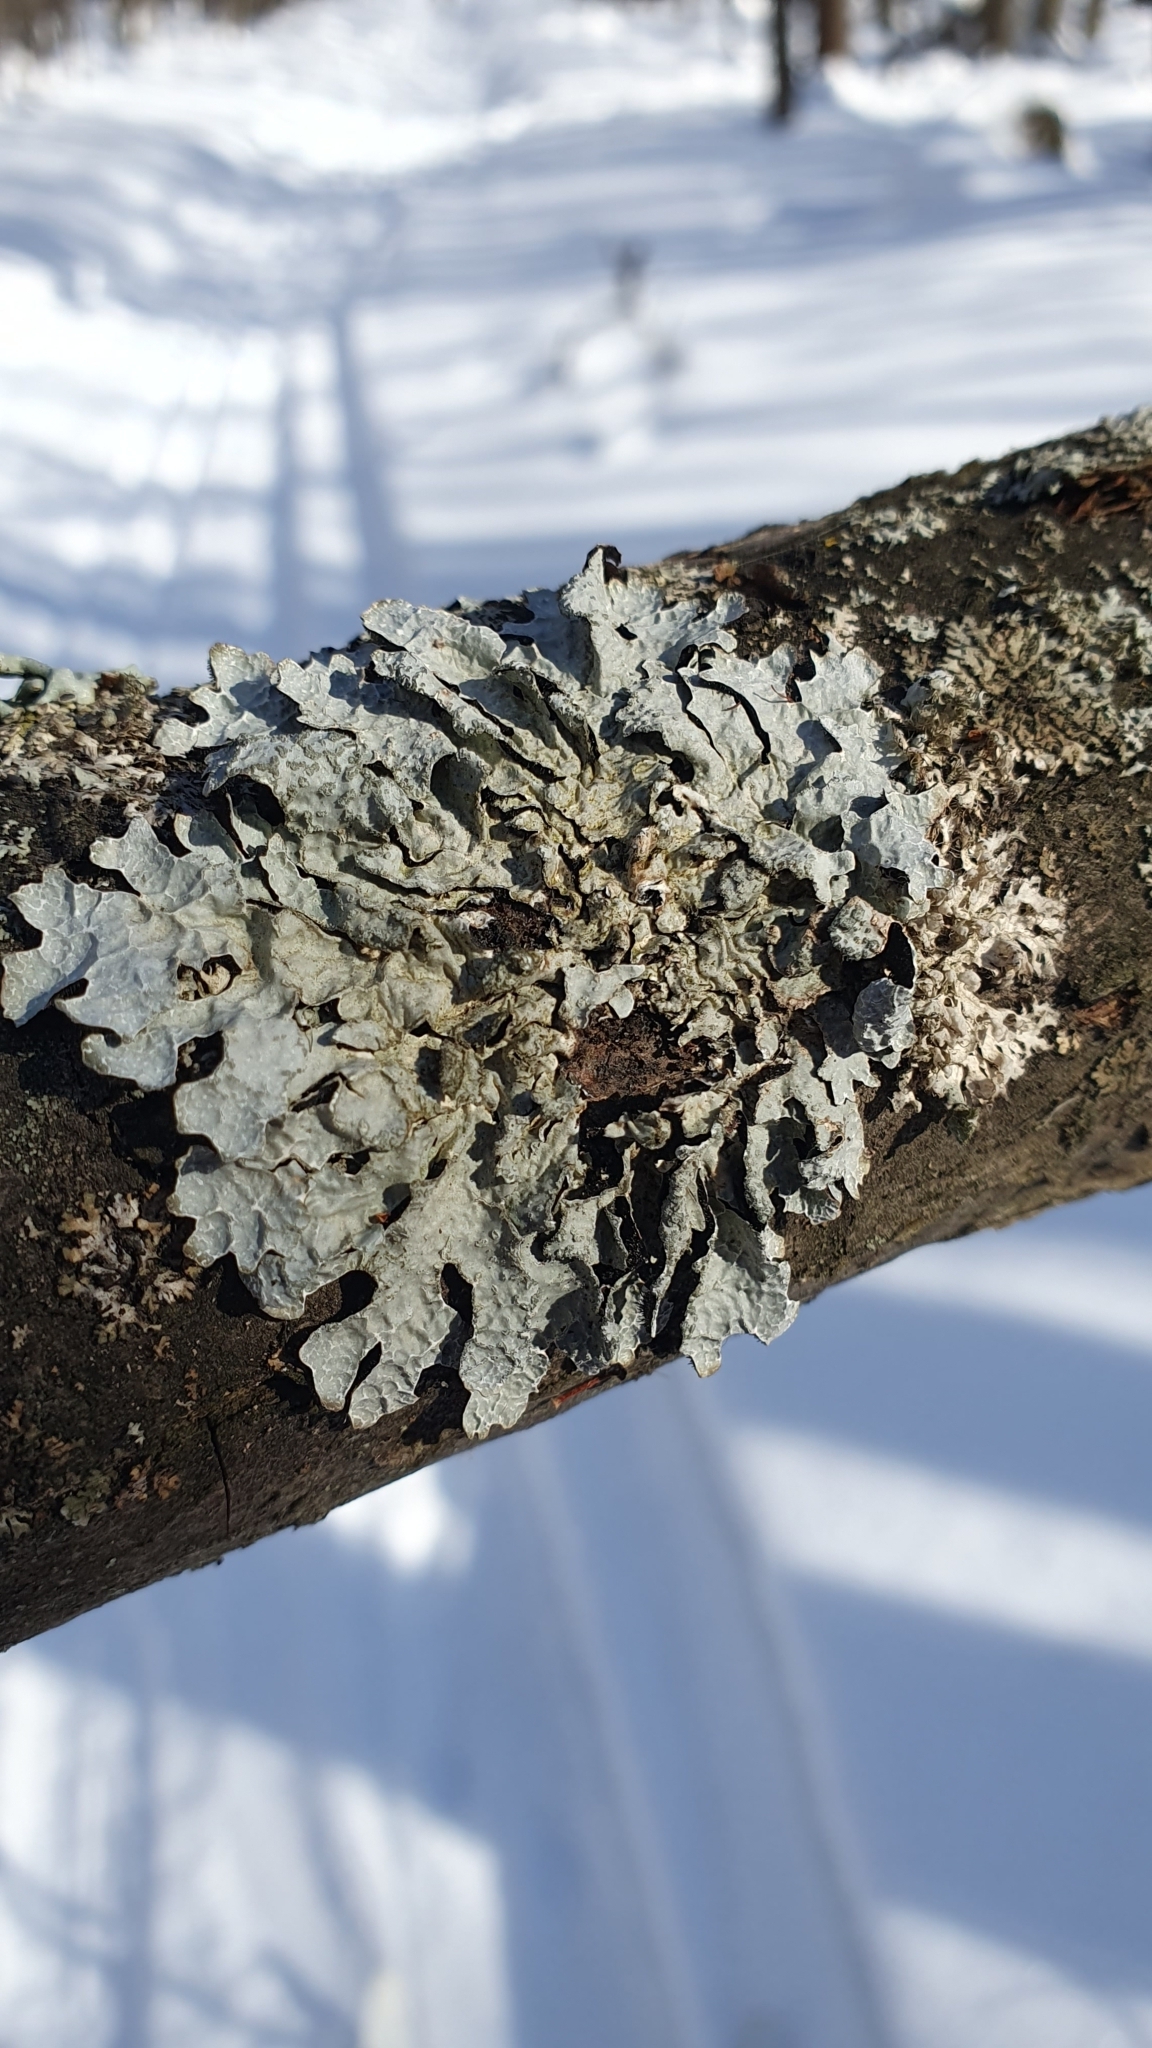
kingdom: Fungi
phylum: Ascomycota
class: Lecanoromycetes
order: Lecanorales
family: Parmeliaceae
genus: Parmelia
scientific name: Parmelia sulcata
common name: Netted shield lichen
